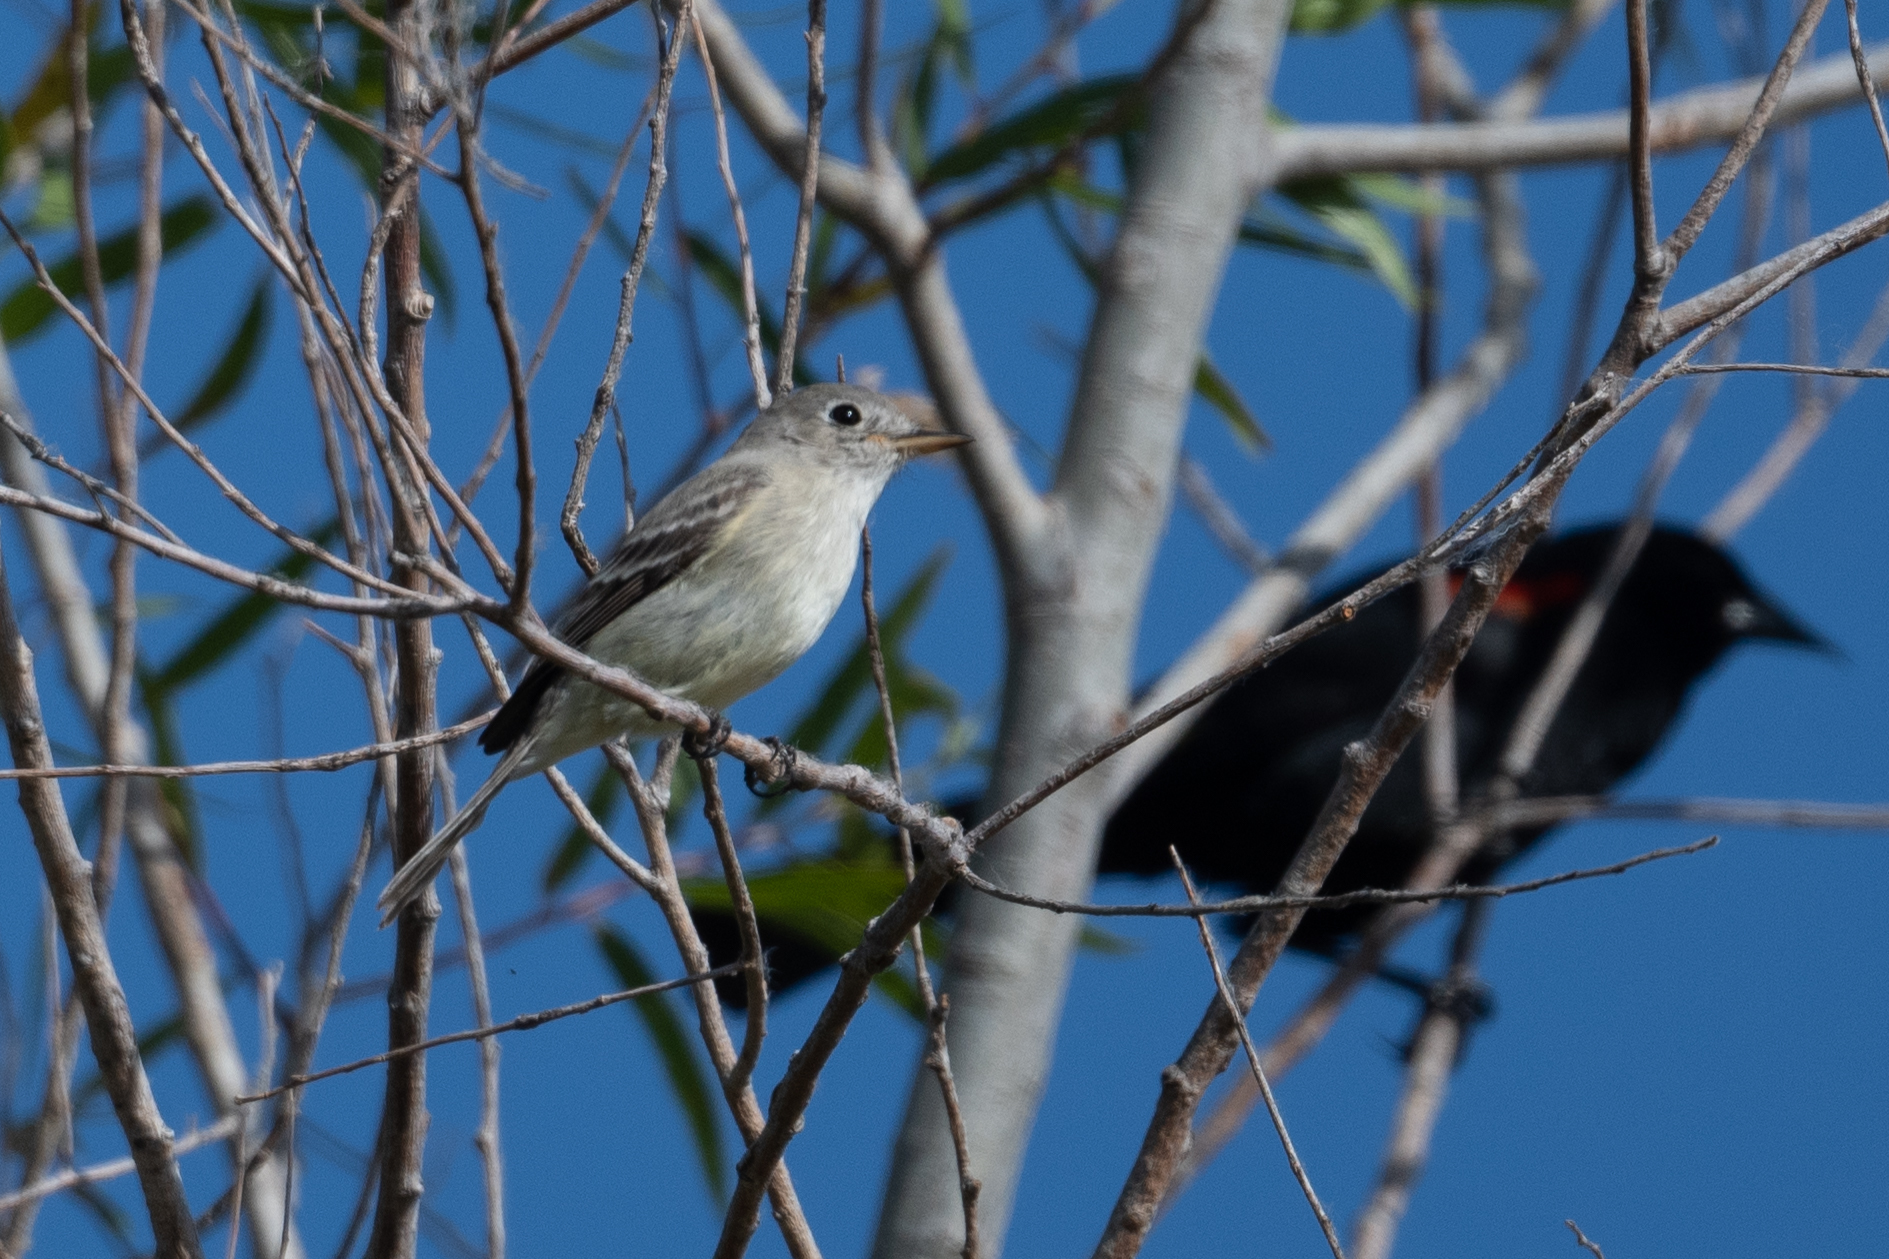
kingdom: Animalia
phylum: Chordata
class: Aves
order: Passeriformes
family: Tyrannidae
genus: Empidonax
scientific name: Empidonax wrightii
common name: Gray flycatcher
